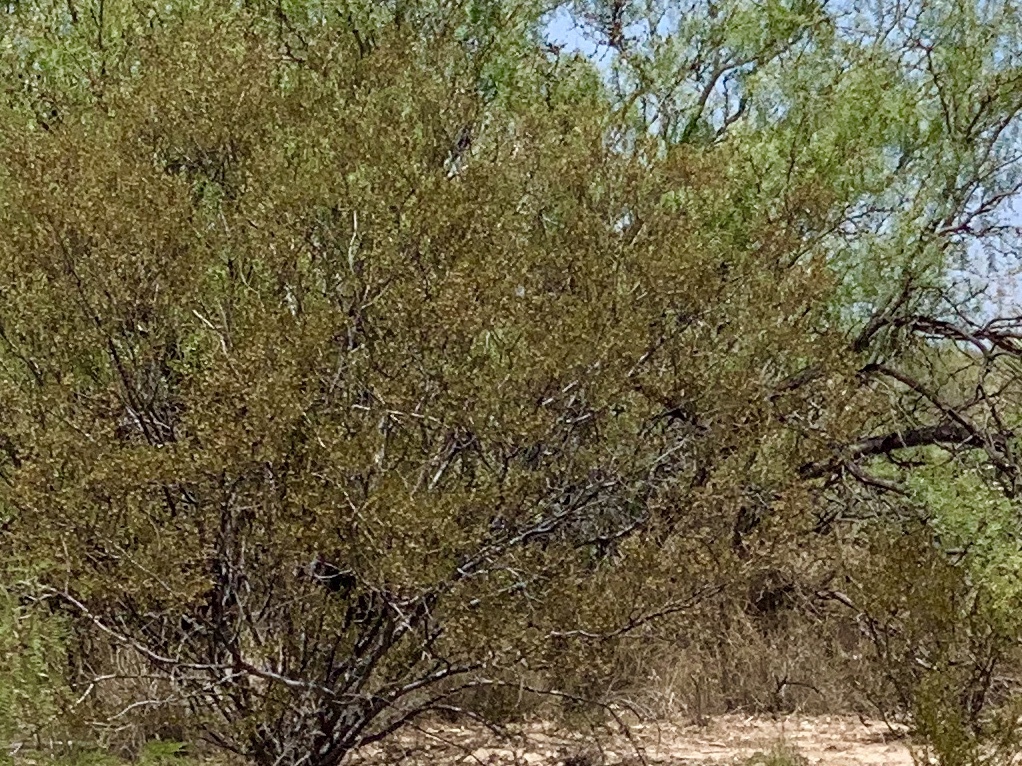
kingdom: Plantae
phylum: Tracheophyta
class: Magnoliopsida
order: Zygophyllales
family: Zygophyllaceae
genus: Larrea
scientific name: Larrea tridentata
